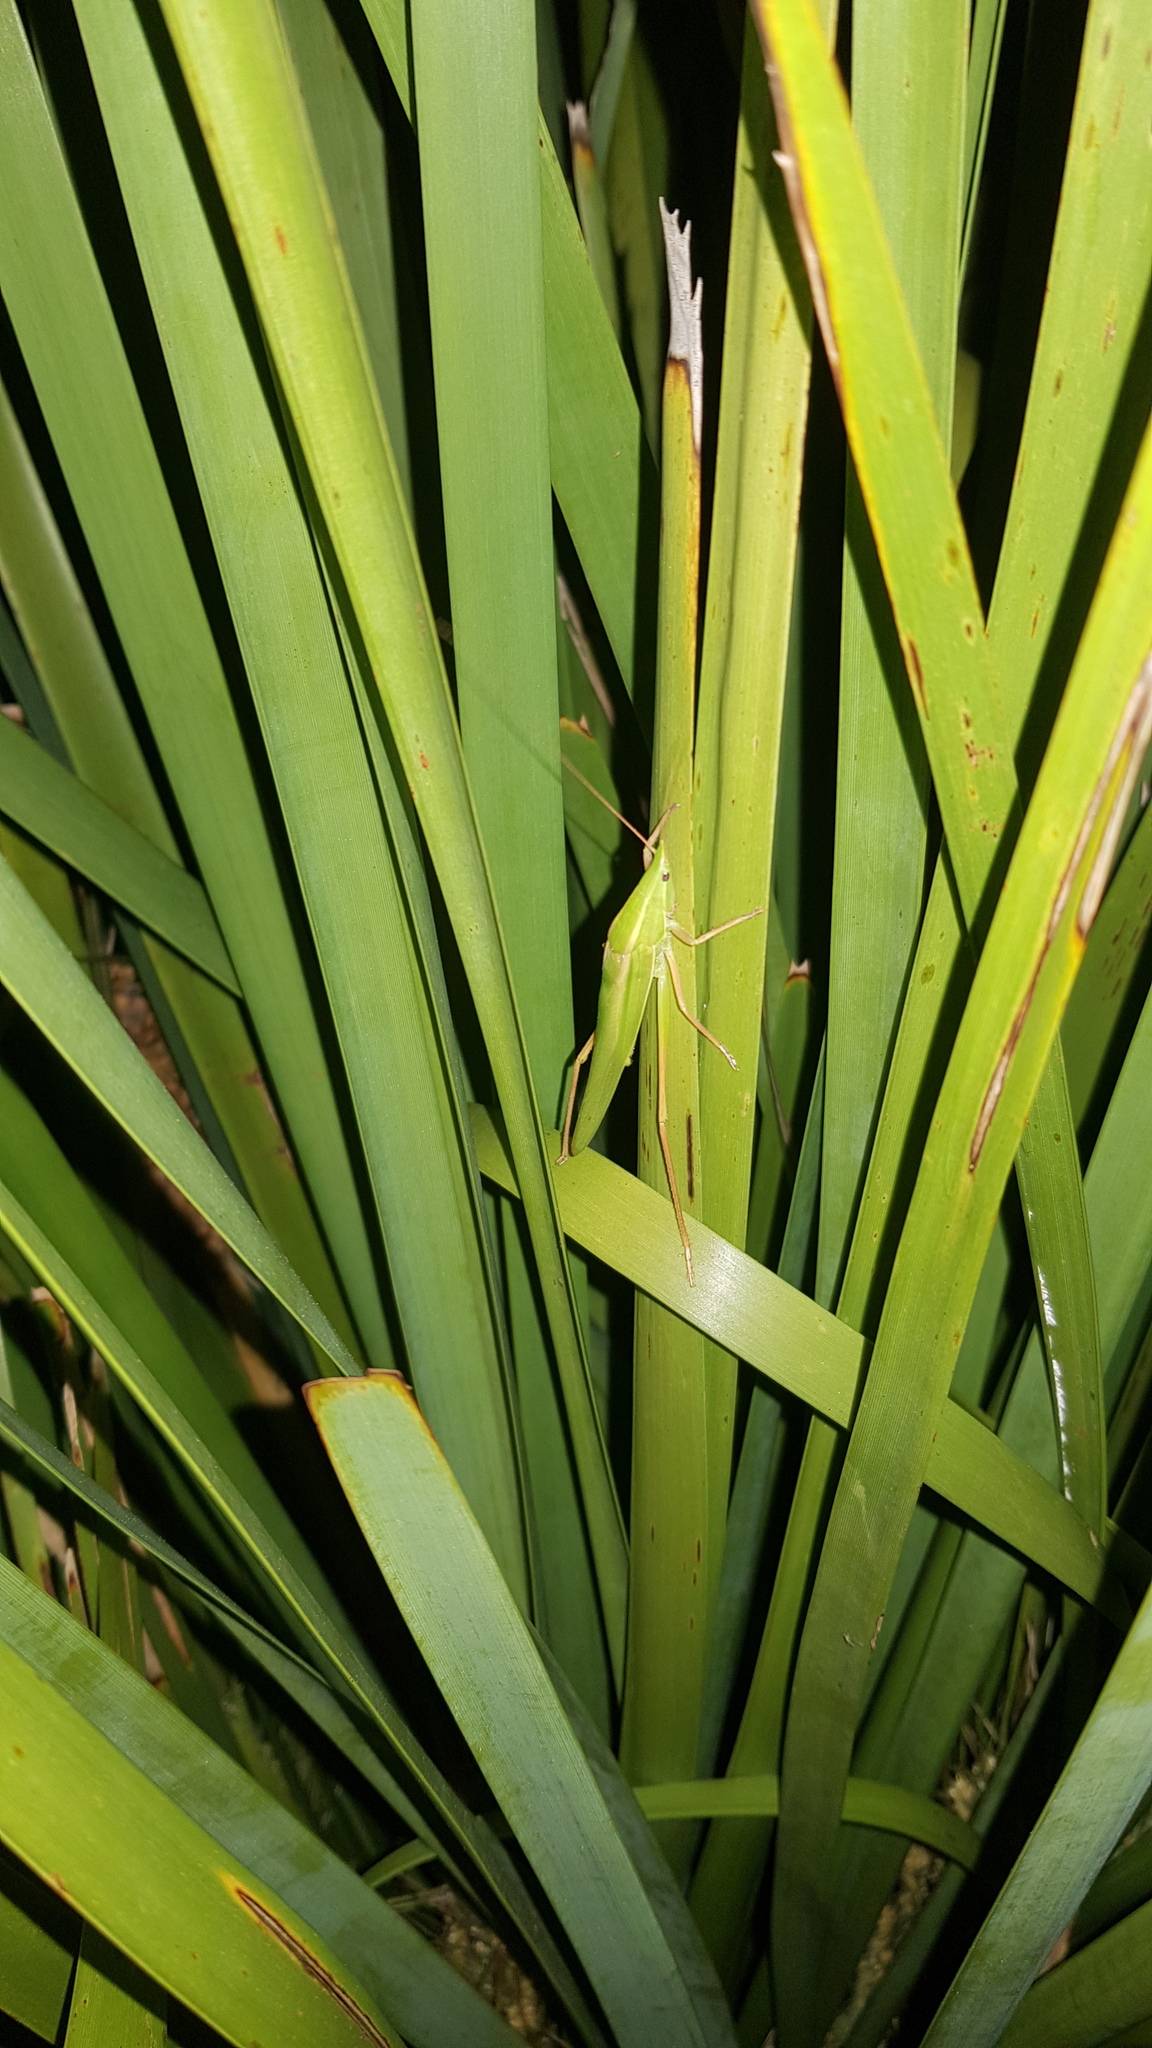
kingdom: Animalia
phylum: Arthropoda
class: Insecta
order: Orthoptera
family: Tettigoniidae
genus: Pseudorhynchus
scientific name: Pseudorhynchus lessonii
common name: Lesson's mimicking snout nose
